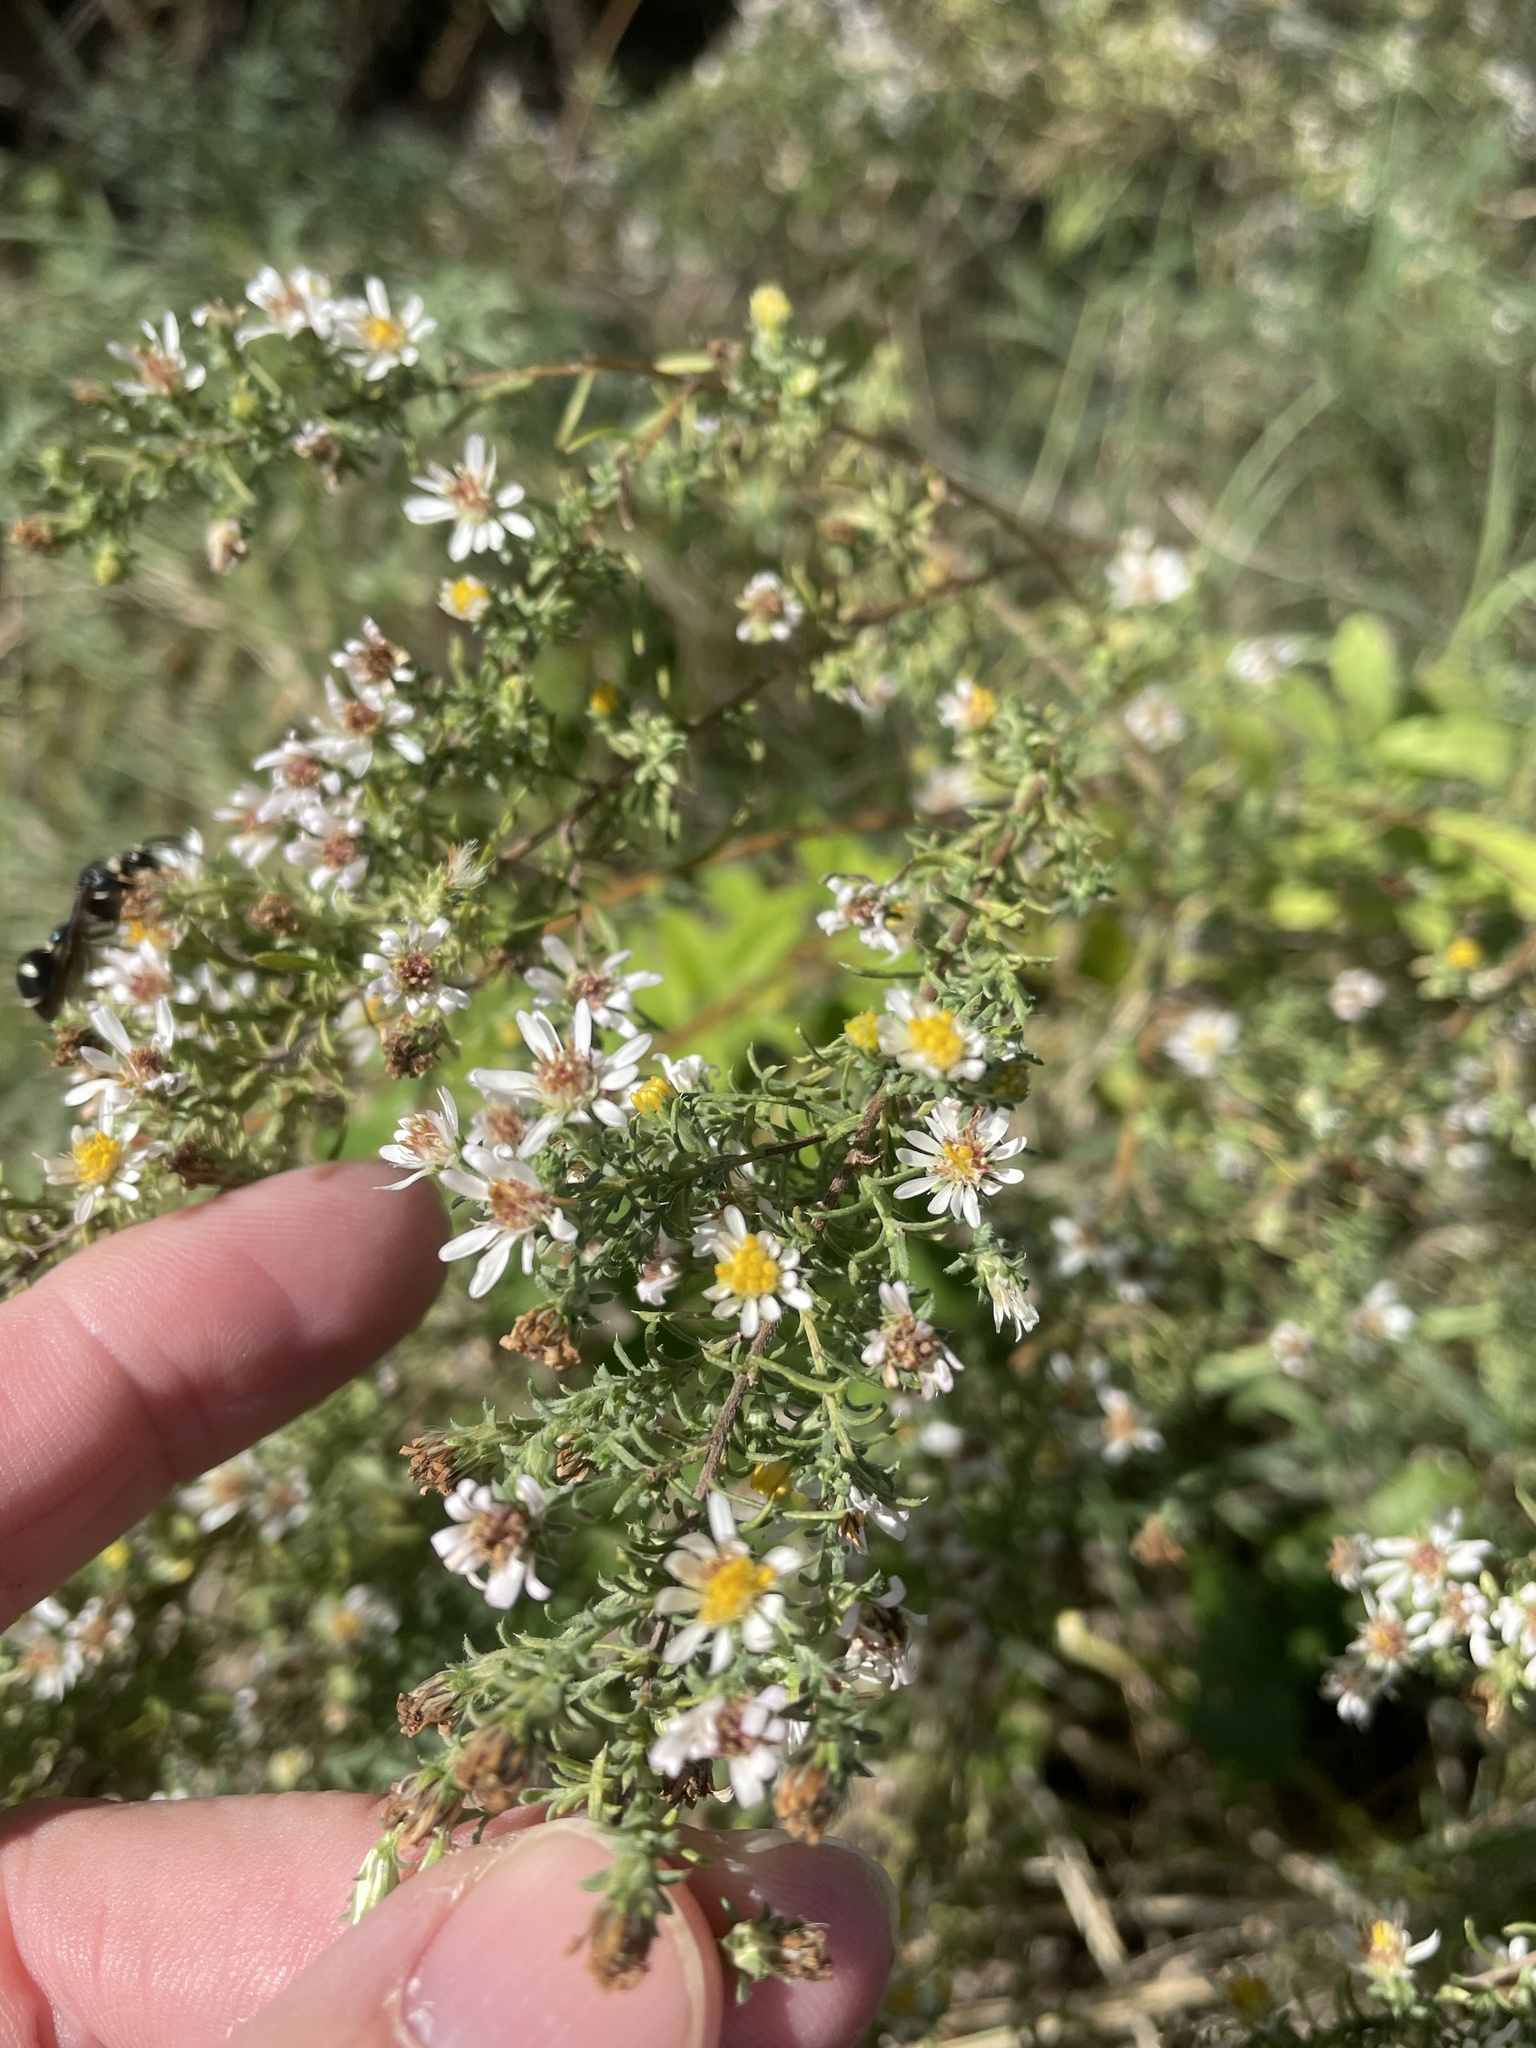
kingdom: Plantae
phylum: Tracheophyta
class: Magnoliopsida
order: Asterales
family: Asteraceae
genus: Symphyotrichum
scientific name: Symphyotrichum ericoides
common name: Heath aster
